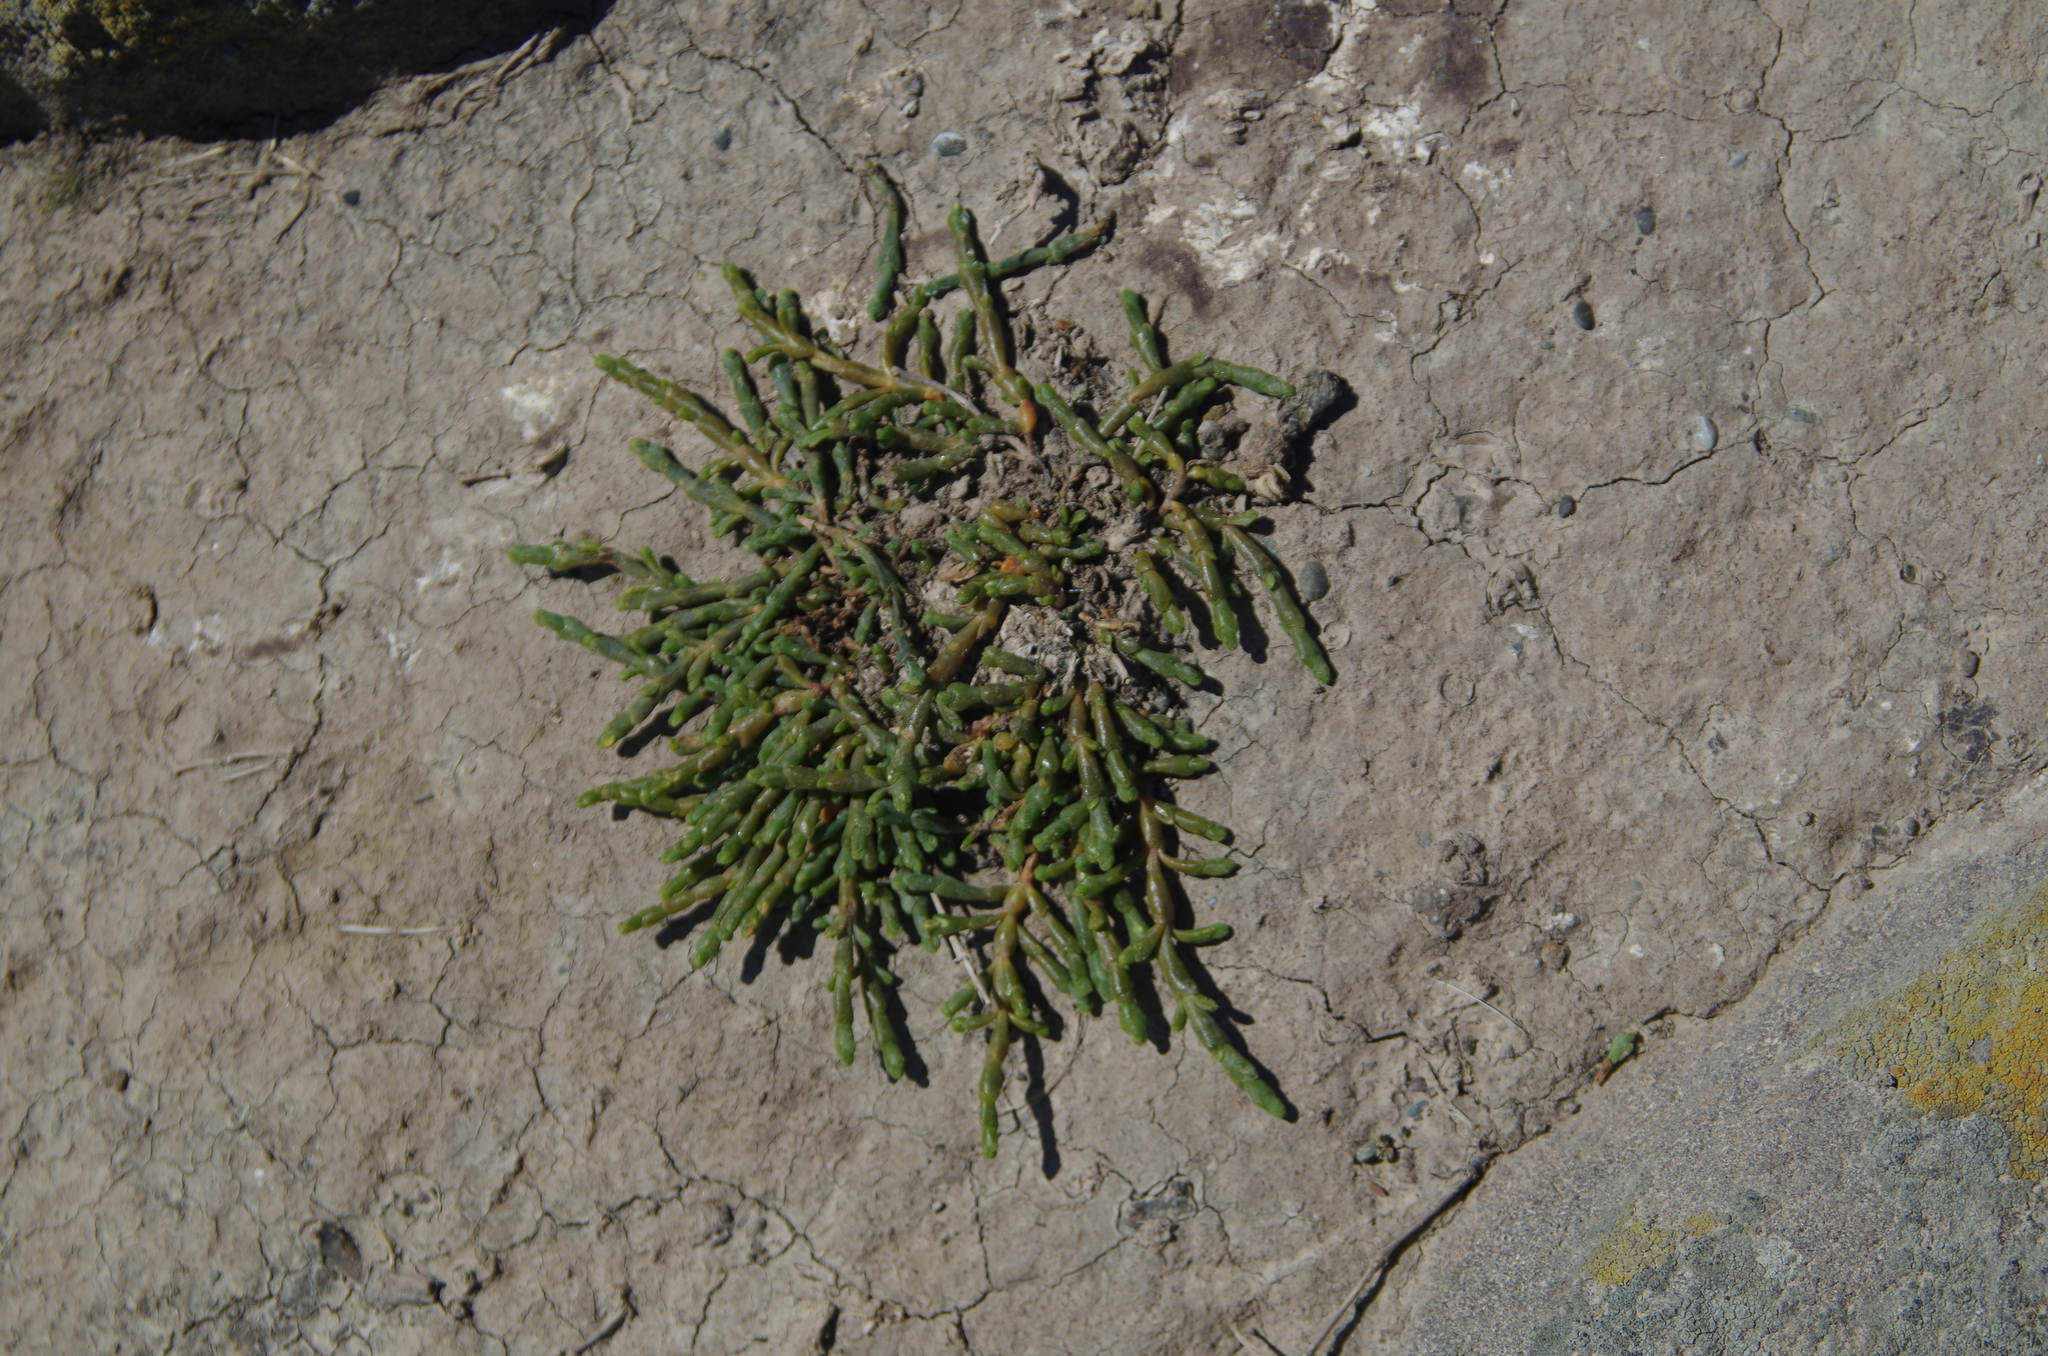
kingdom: Plantae
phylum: Tracheophyta
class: Magnoliopsida
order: Caryophyllales
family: Amaranthaceae
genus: Salicornia
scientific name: Salicornia quinqueflora
